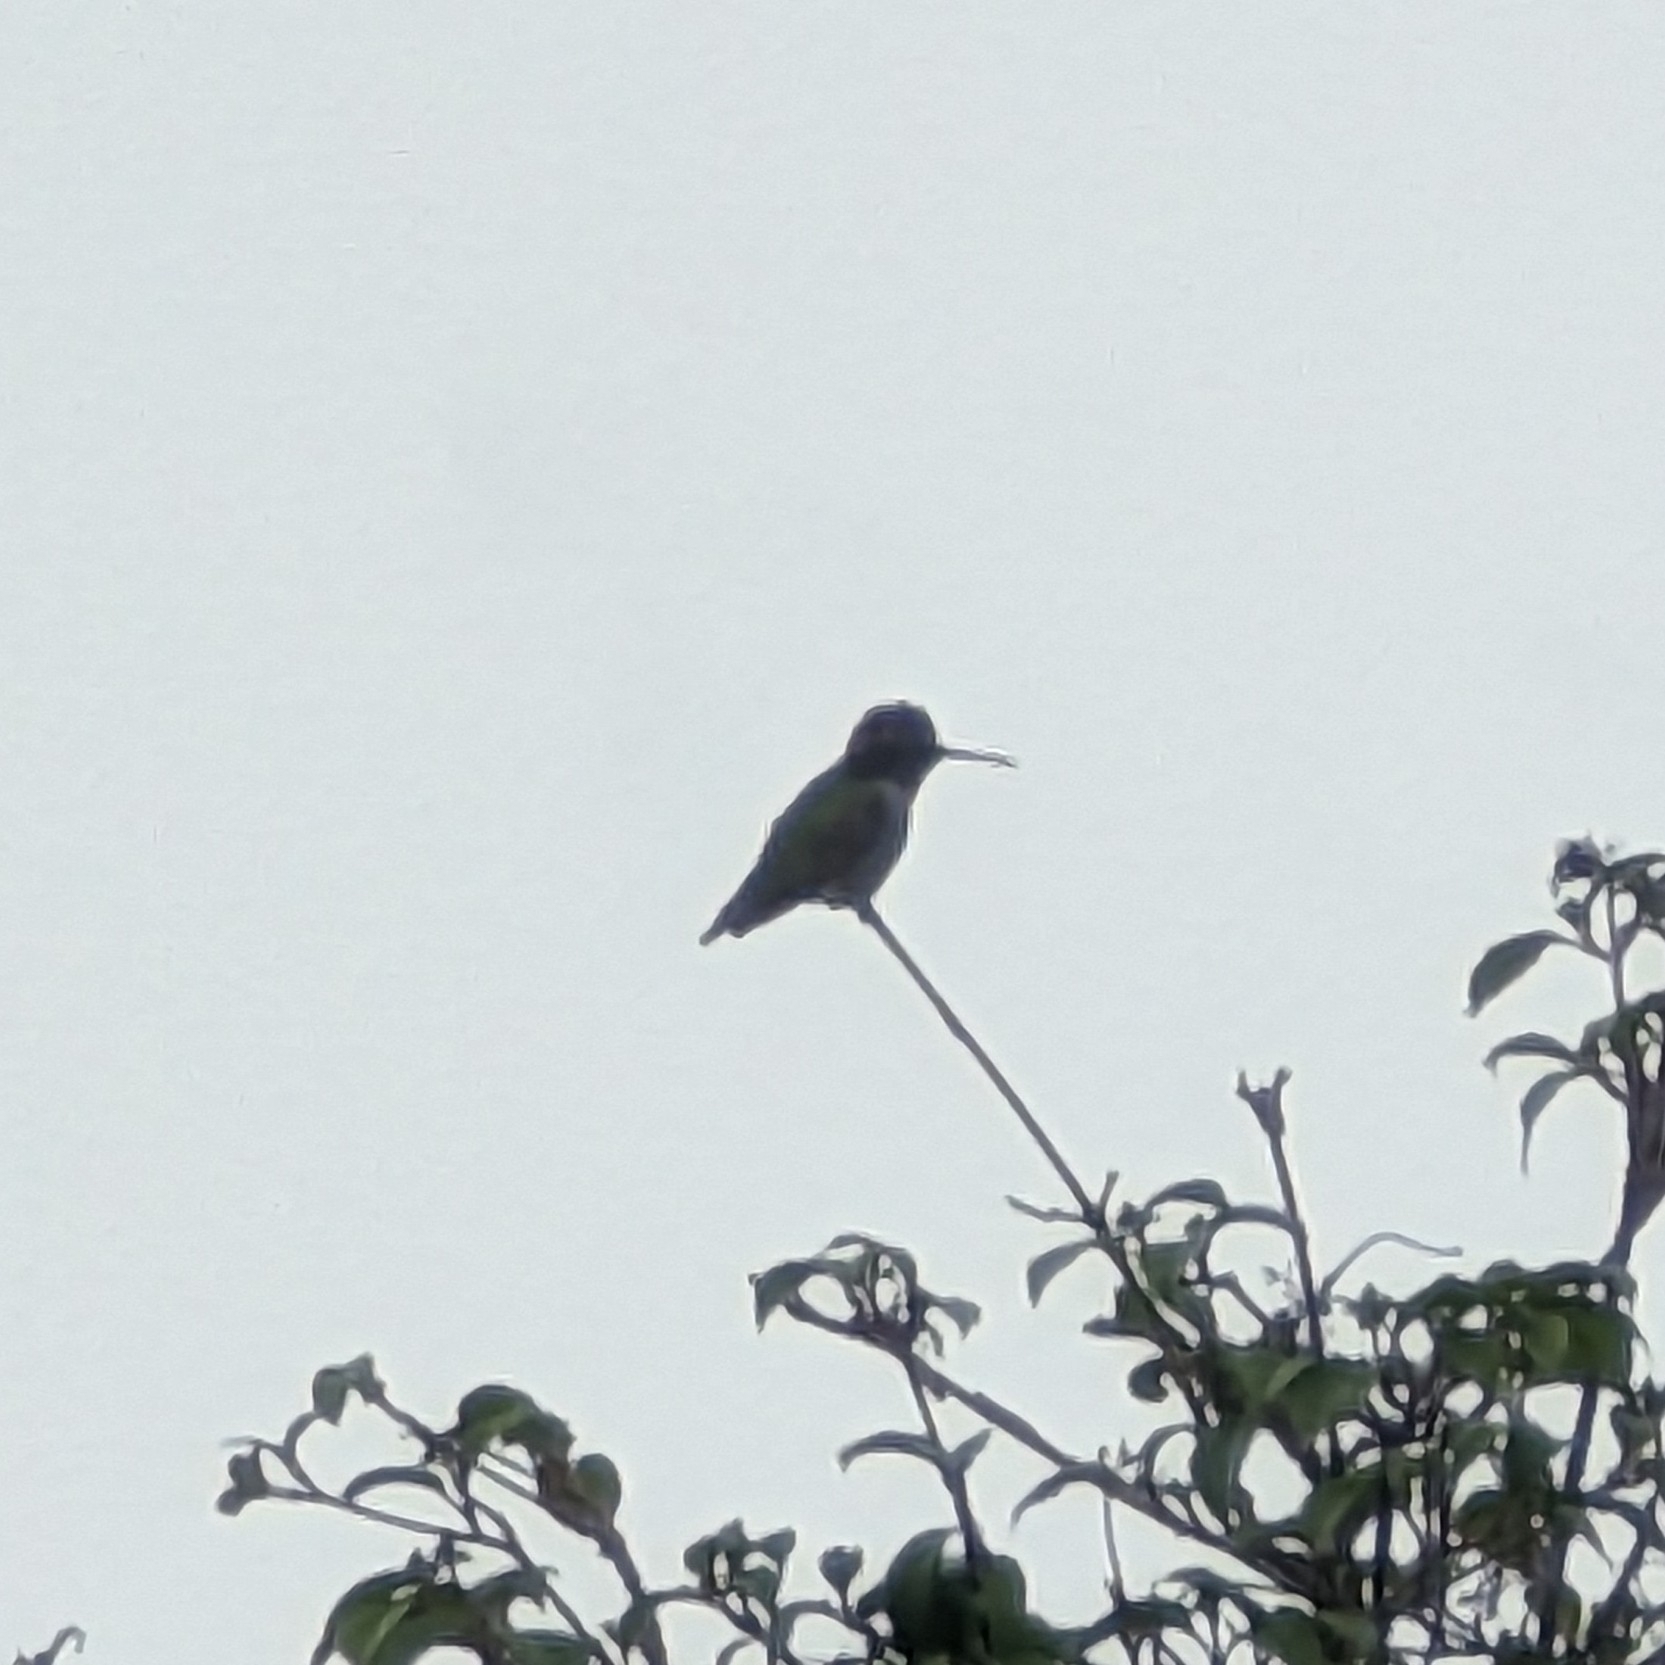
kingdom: Animalia
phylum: Chordata
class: Aves
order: Apodiformes
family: Trochilidae
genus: Calypte
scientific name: Calypte anna
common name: Anna's hummingbird
